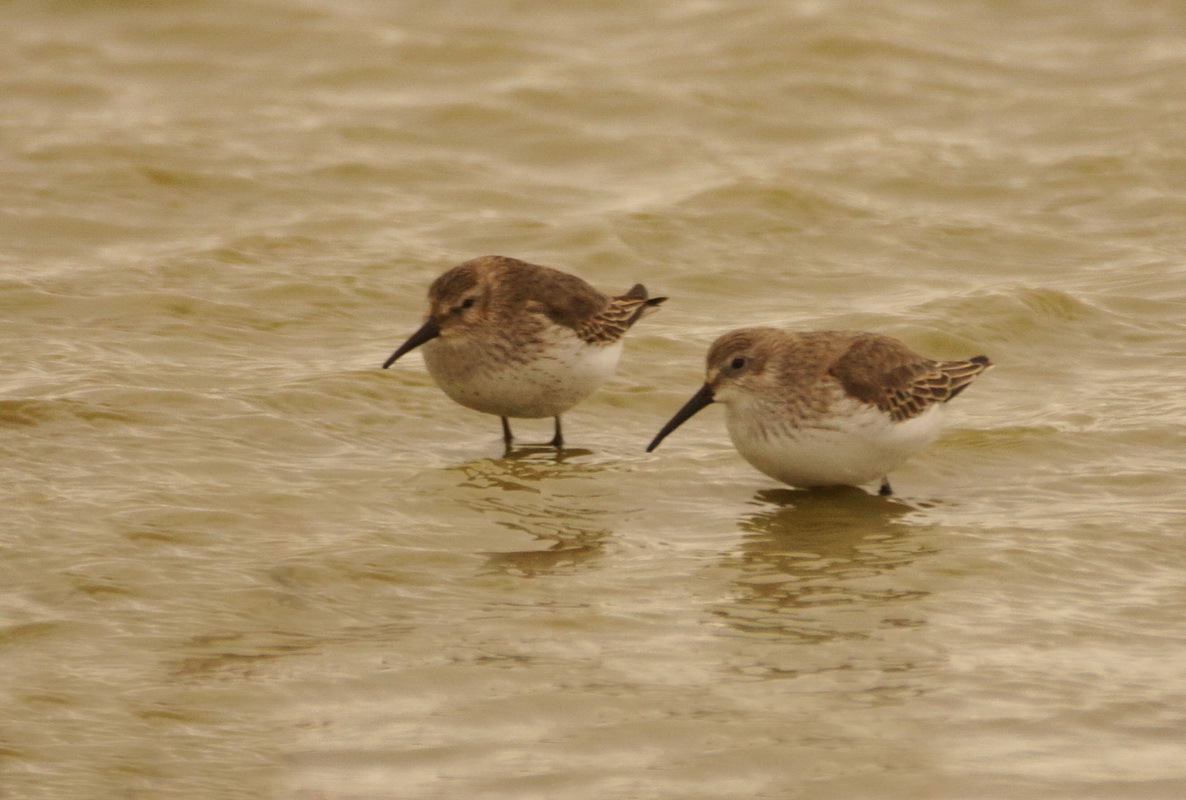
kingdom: Animalia
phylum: Chordata
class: Aves
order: Charadriiformes
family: Scolopacidae
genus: Calidris
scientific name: Calidris alpina
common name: Dunlin
